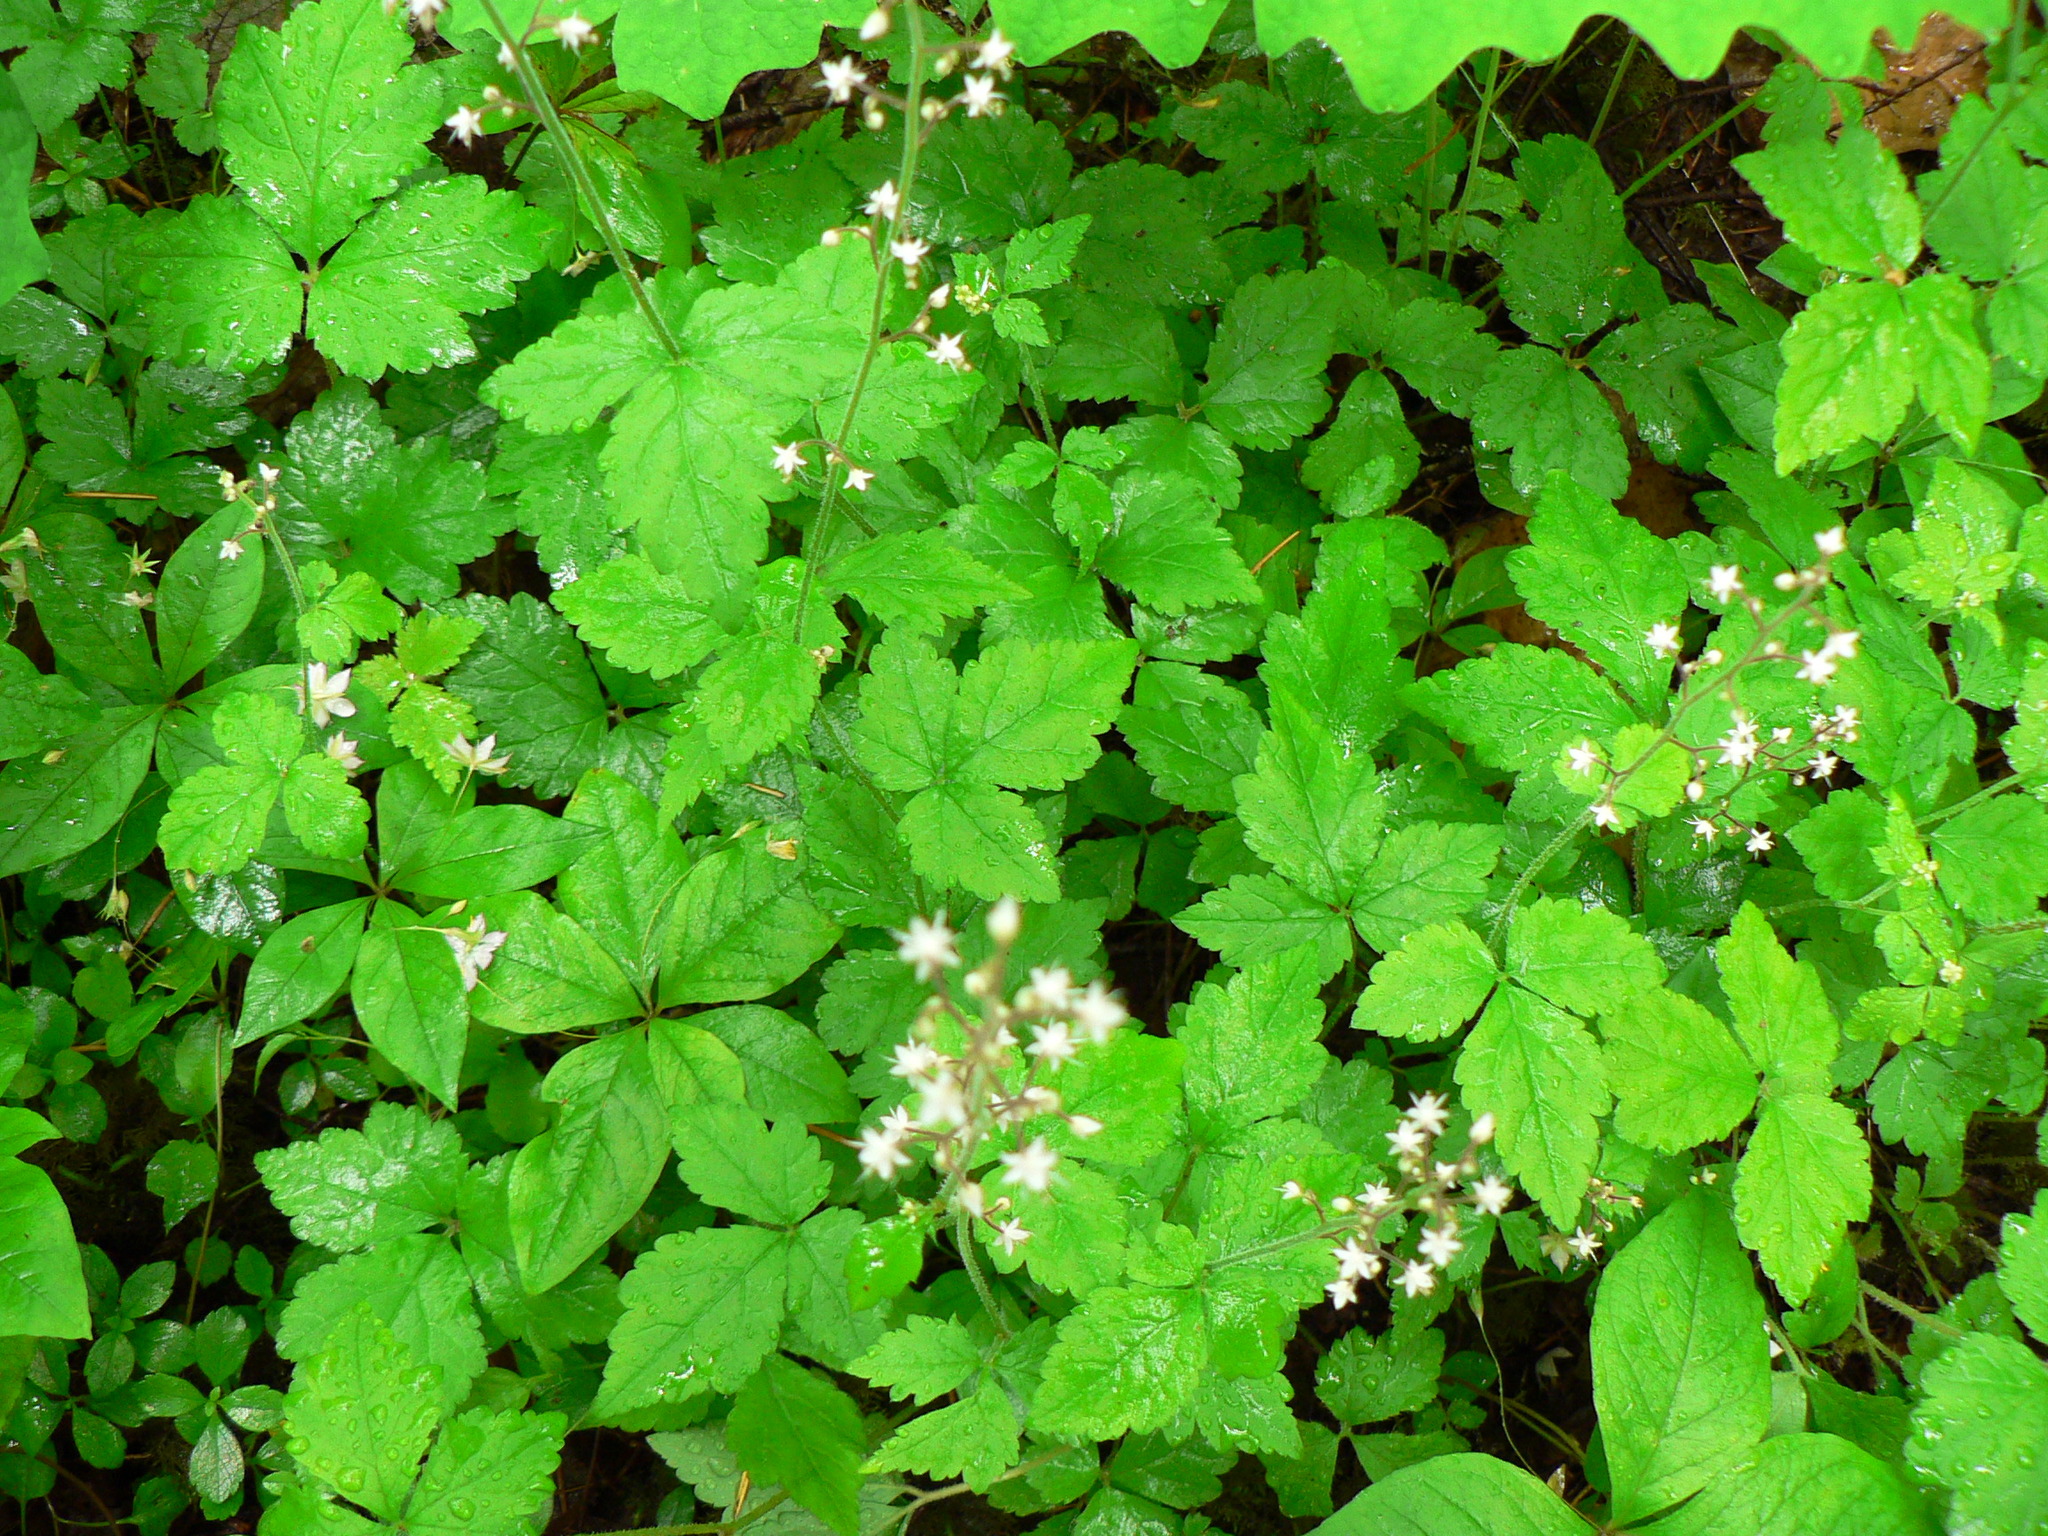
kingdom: Plantae
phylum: Tracheophyta
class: Magnoliopsida
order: Saxifragales
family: Saxifragaceae
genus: Tiarella
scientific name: Tiarella trifoliata
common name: Sugar-scoop
